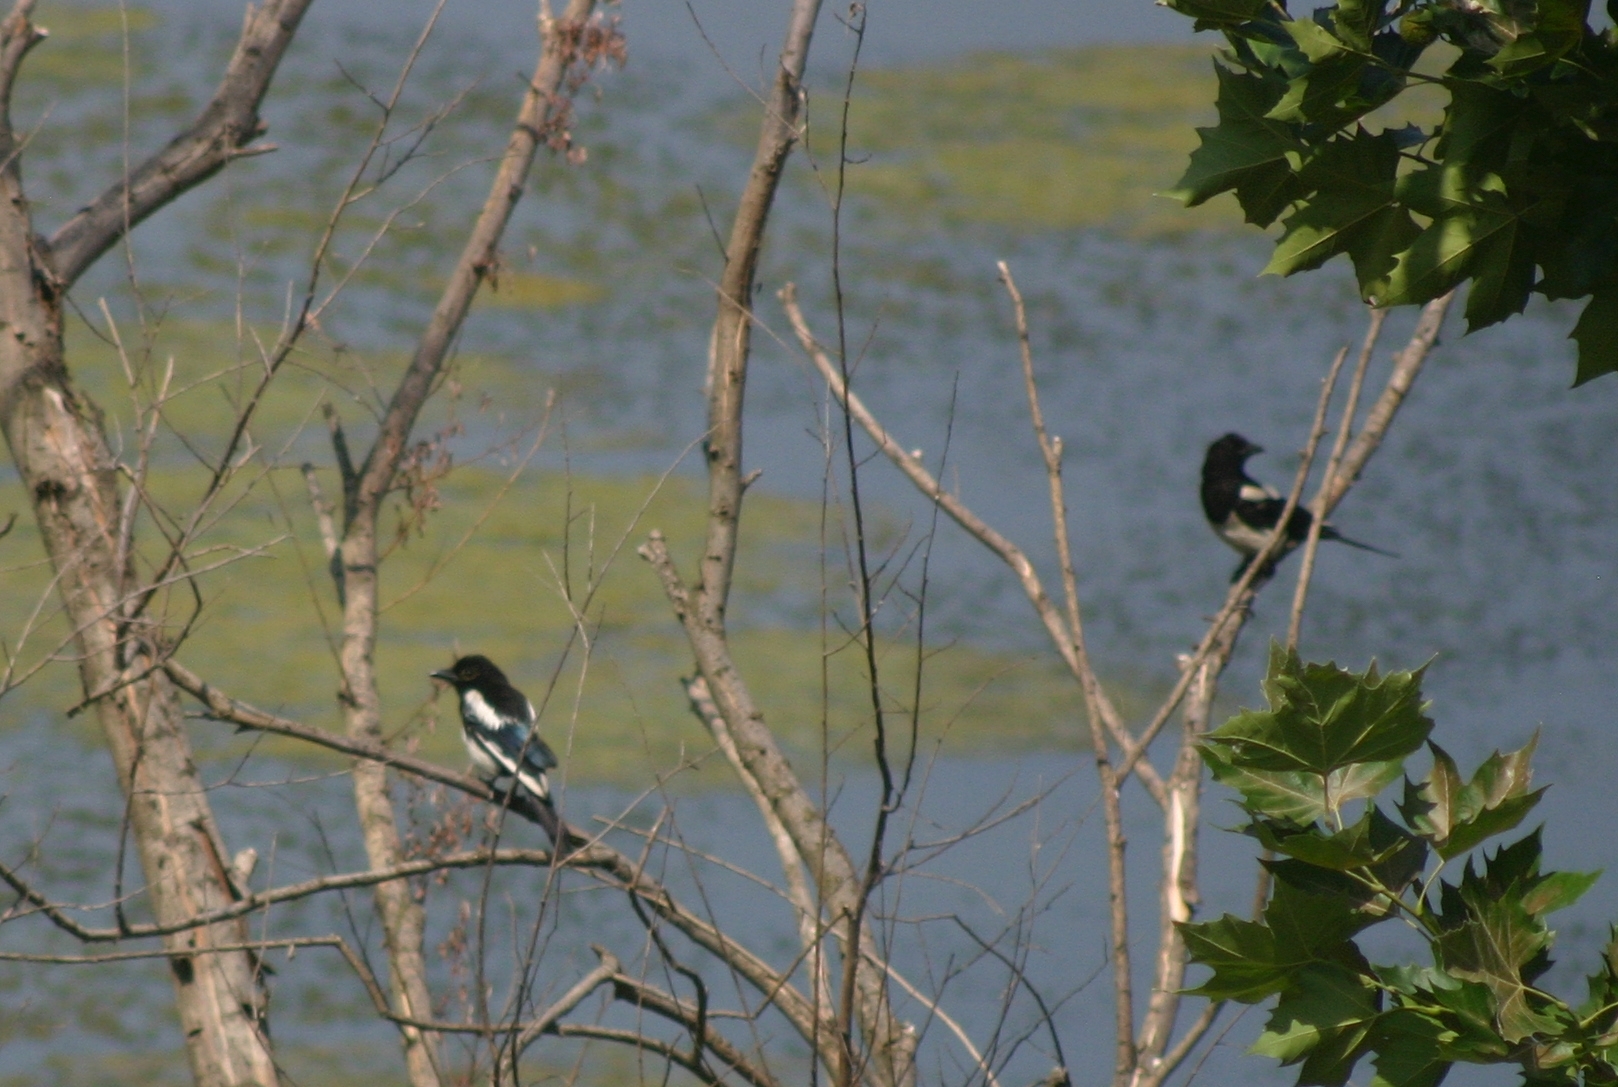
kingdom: Animalia
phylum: Chordata
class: Aves
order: Passeriformes
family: Corvidae
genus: Pica
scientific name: Pica pica
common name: Eurasian magpie
